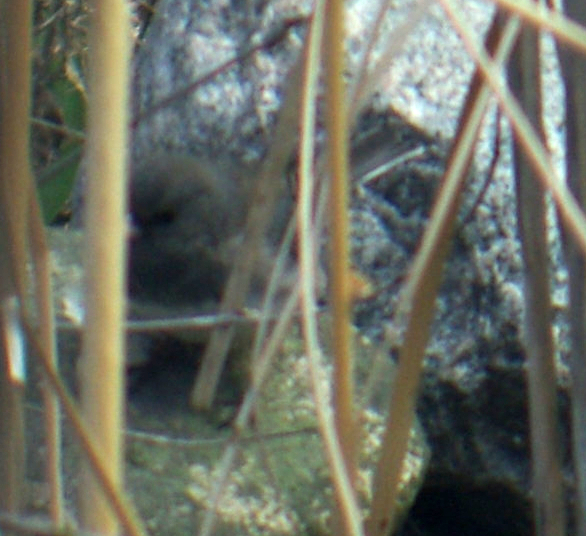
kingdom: Animalia
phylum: Chordata
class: Aves
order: Passeriformes
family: Passerellidae
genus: Junco
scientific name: Junco hyemalis
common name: Dark-eyed junco
